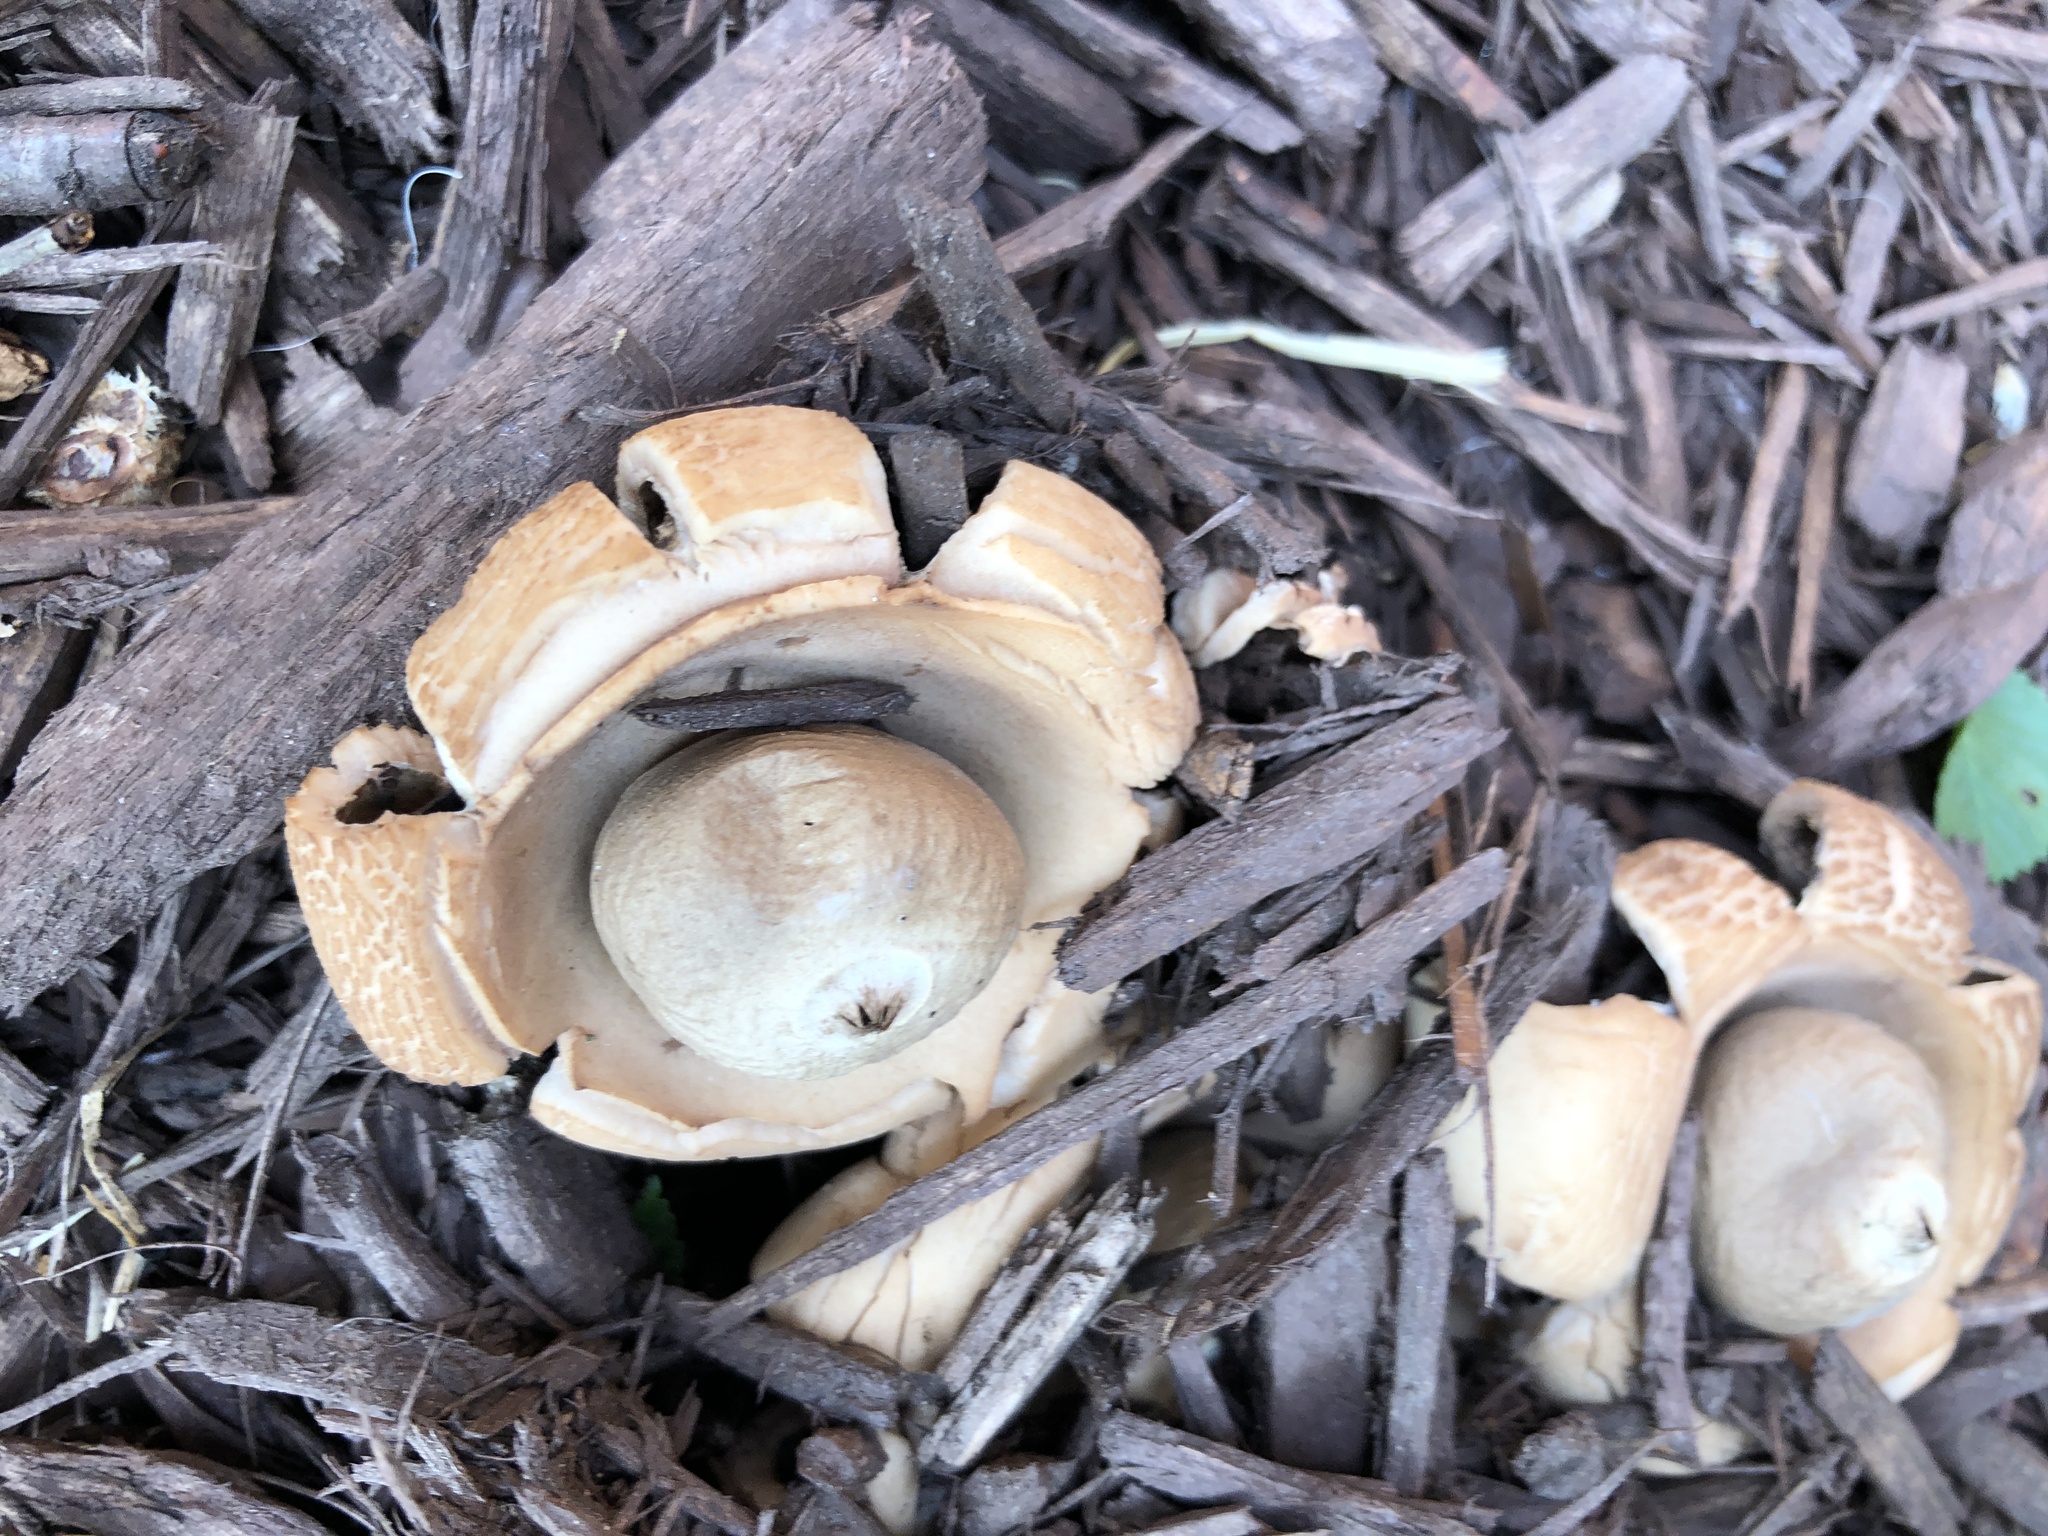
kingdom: Fungi
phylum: Basidiomycota
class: Agaricomycetes
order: Geastrales
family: Geastraceae
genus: Geastrum
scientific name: Geastrum saccatum
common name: Rounded earthstar
